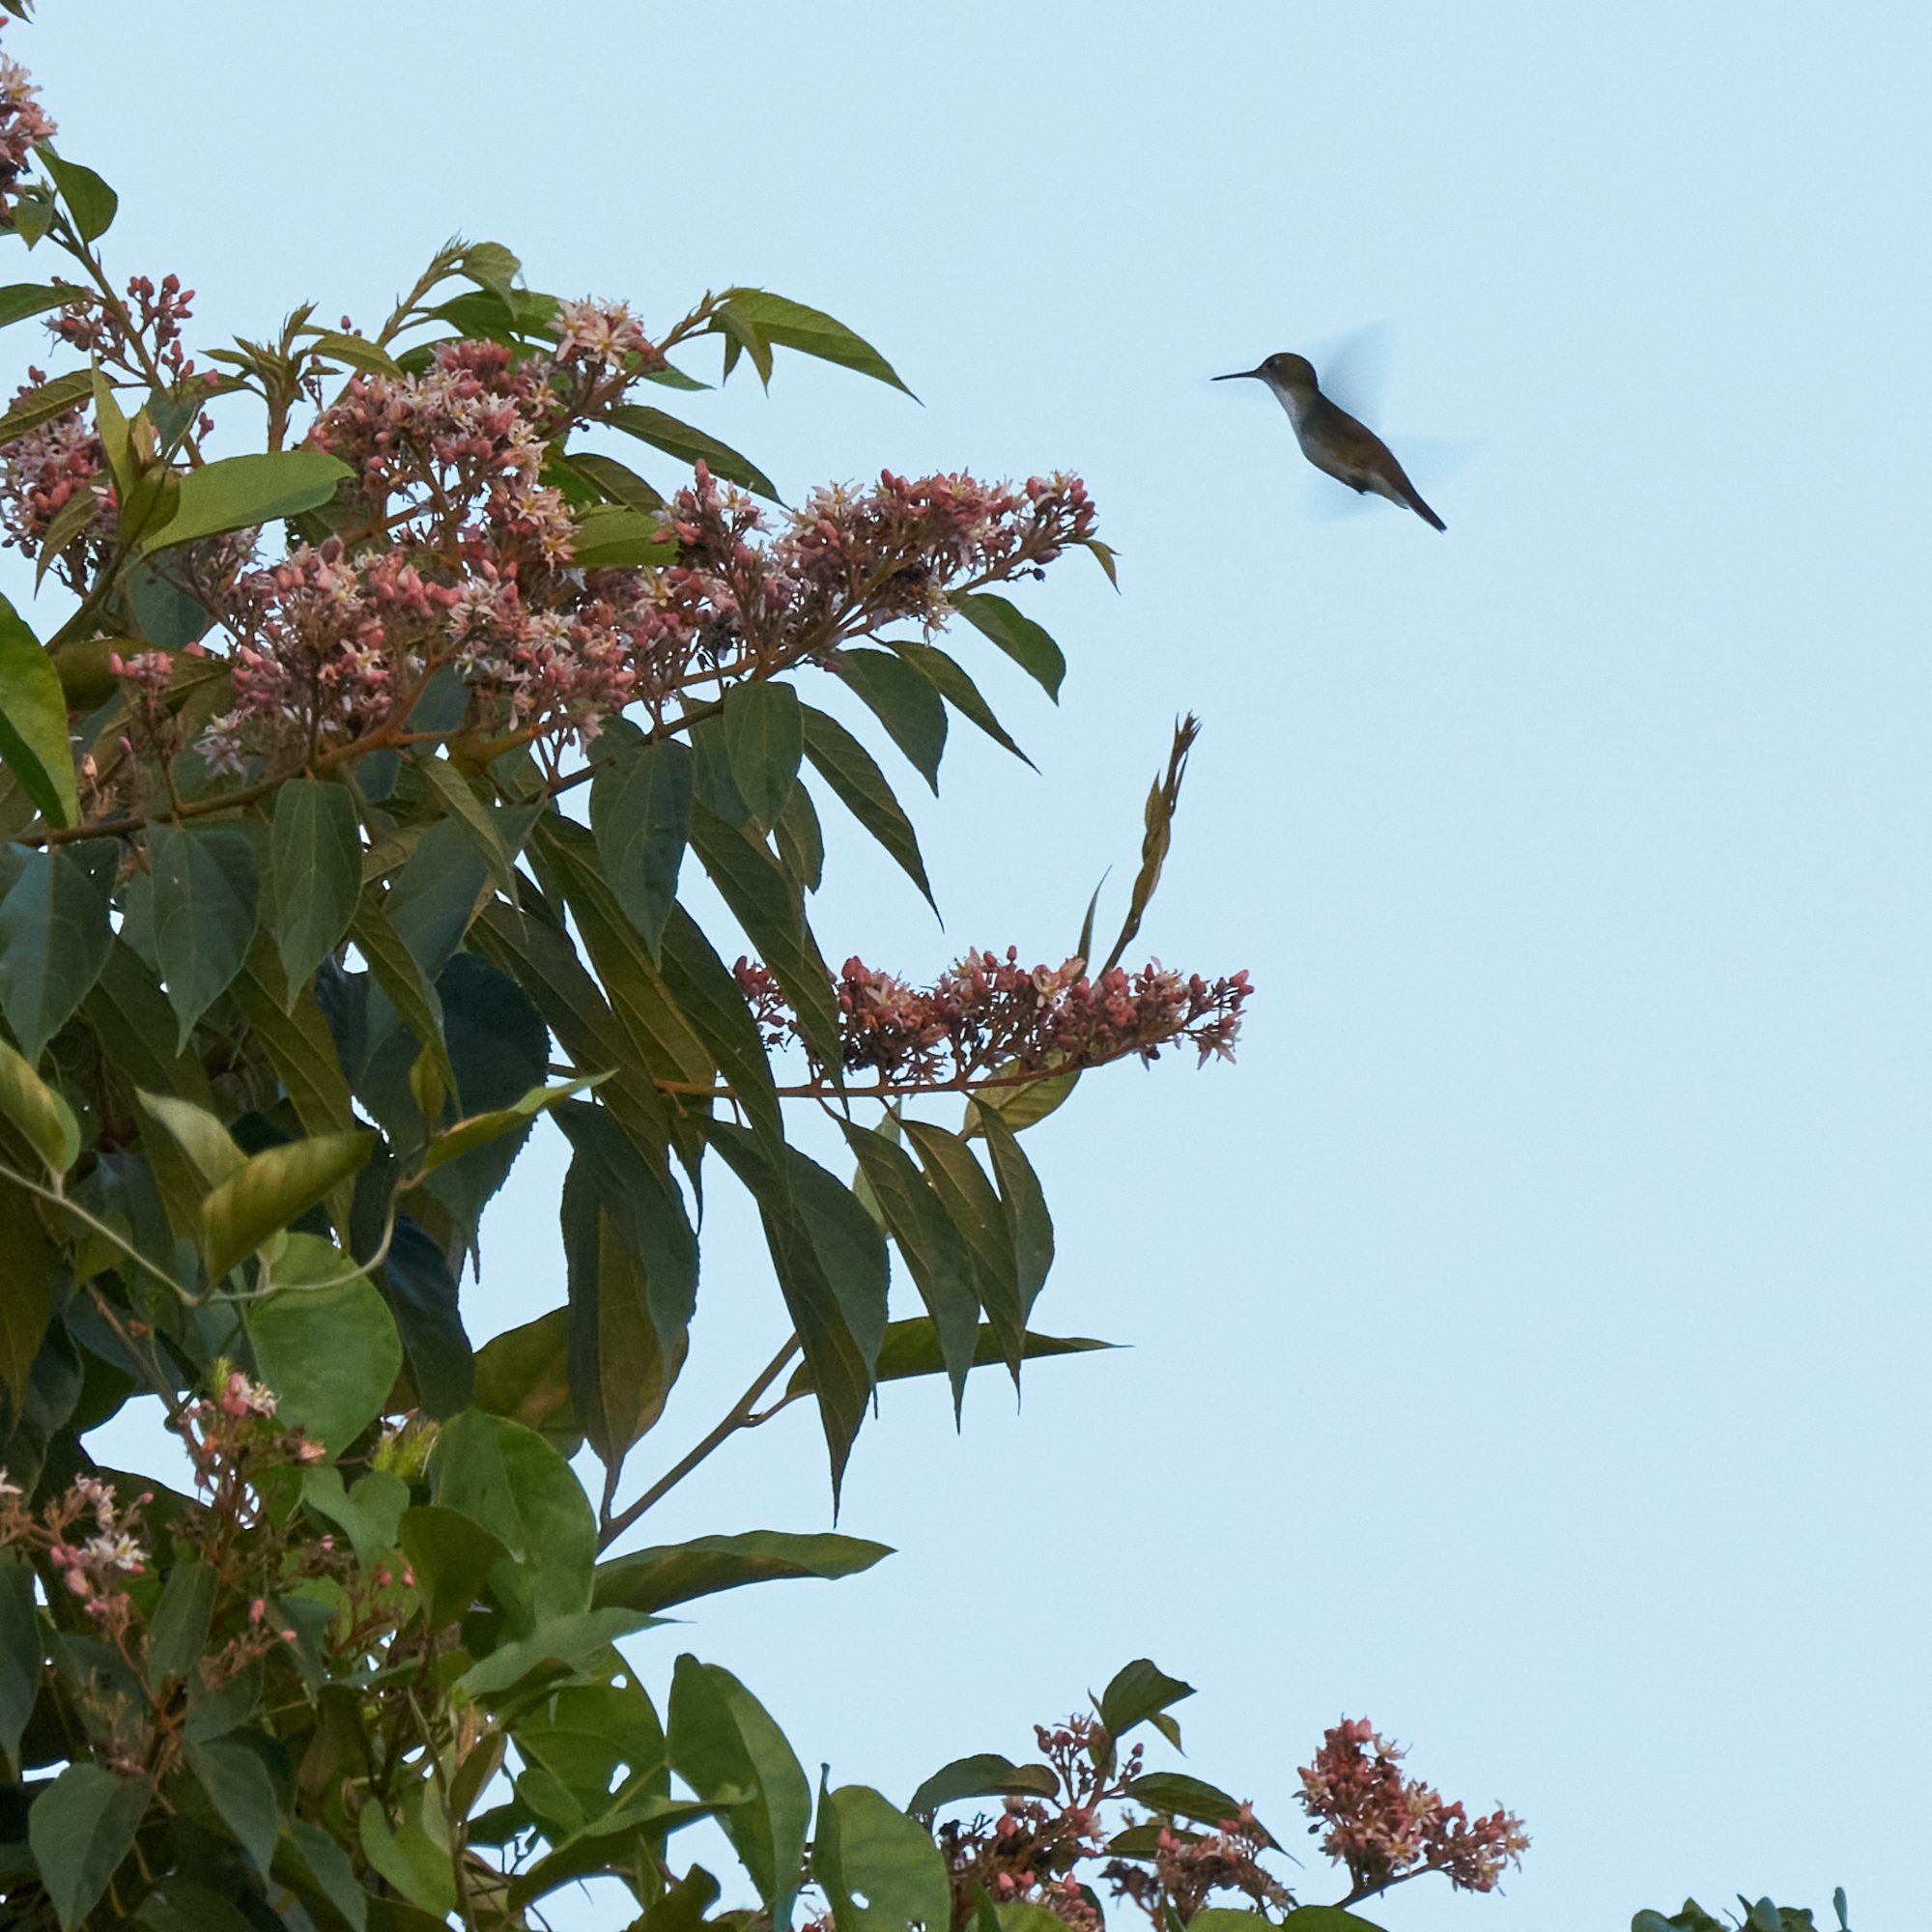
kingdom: Animalia
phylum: Chordata
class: Aves
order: Apodiformes
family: Trochilidae
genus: Chlorestes
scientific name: Chlorestes candida
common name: White-bellied emerald
